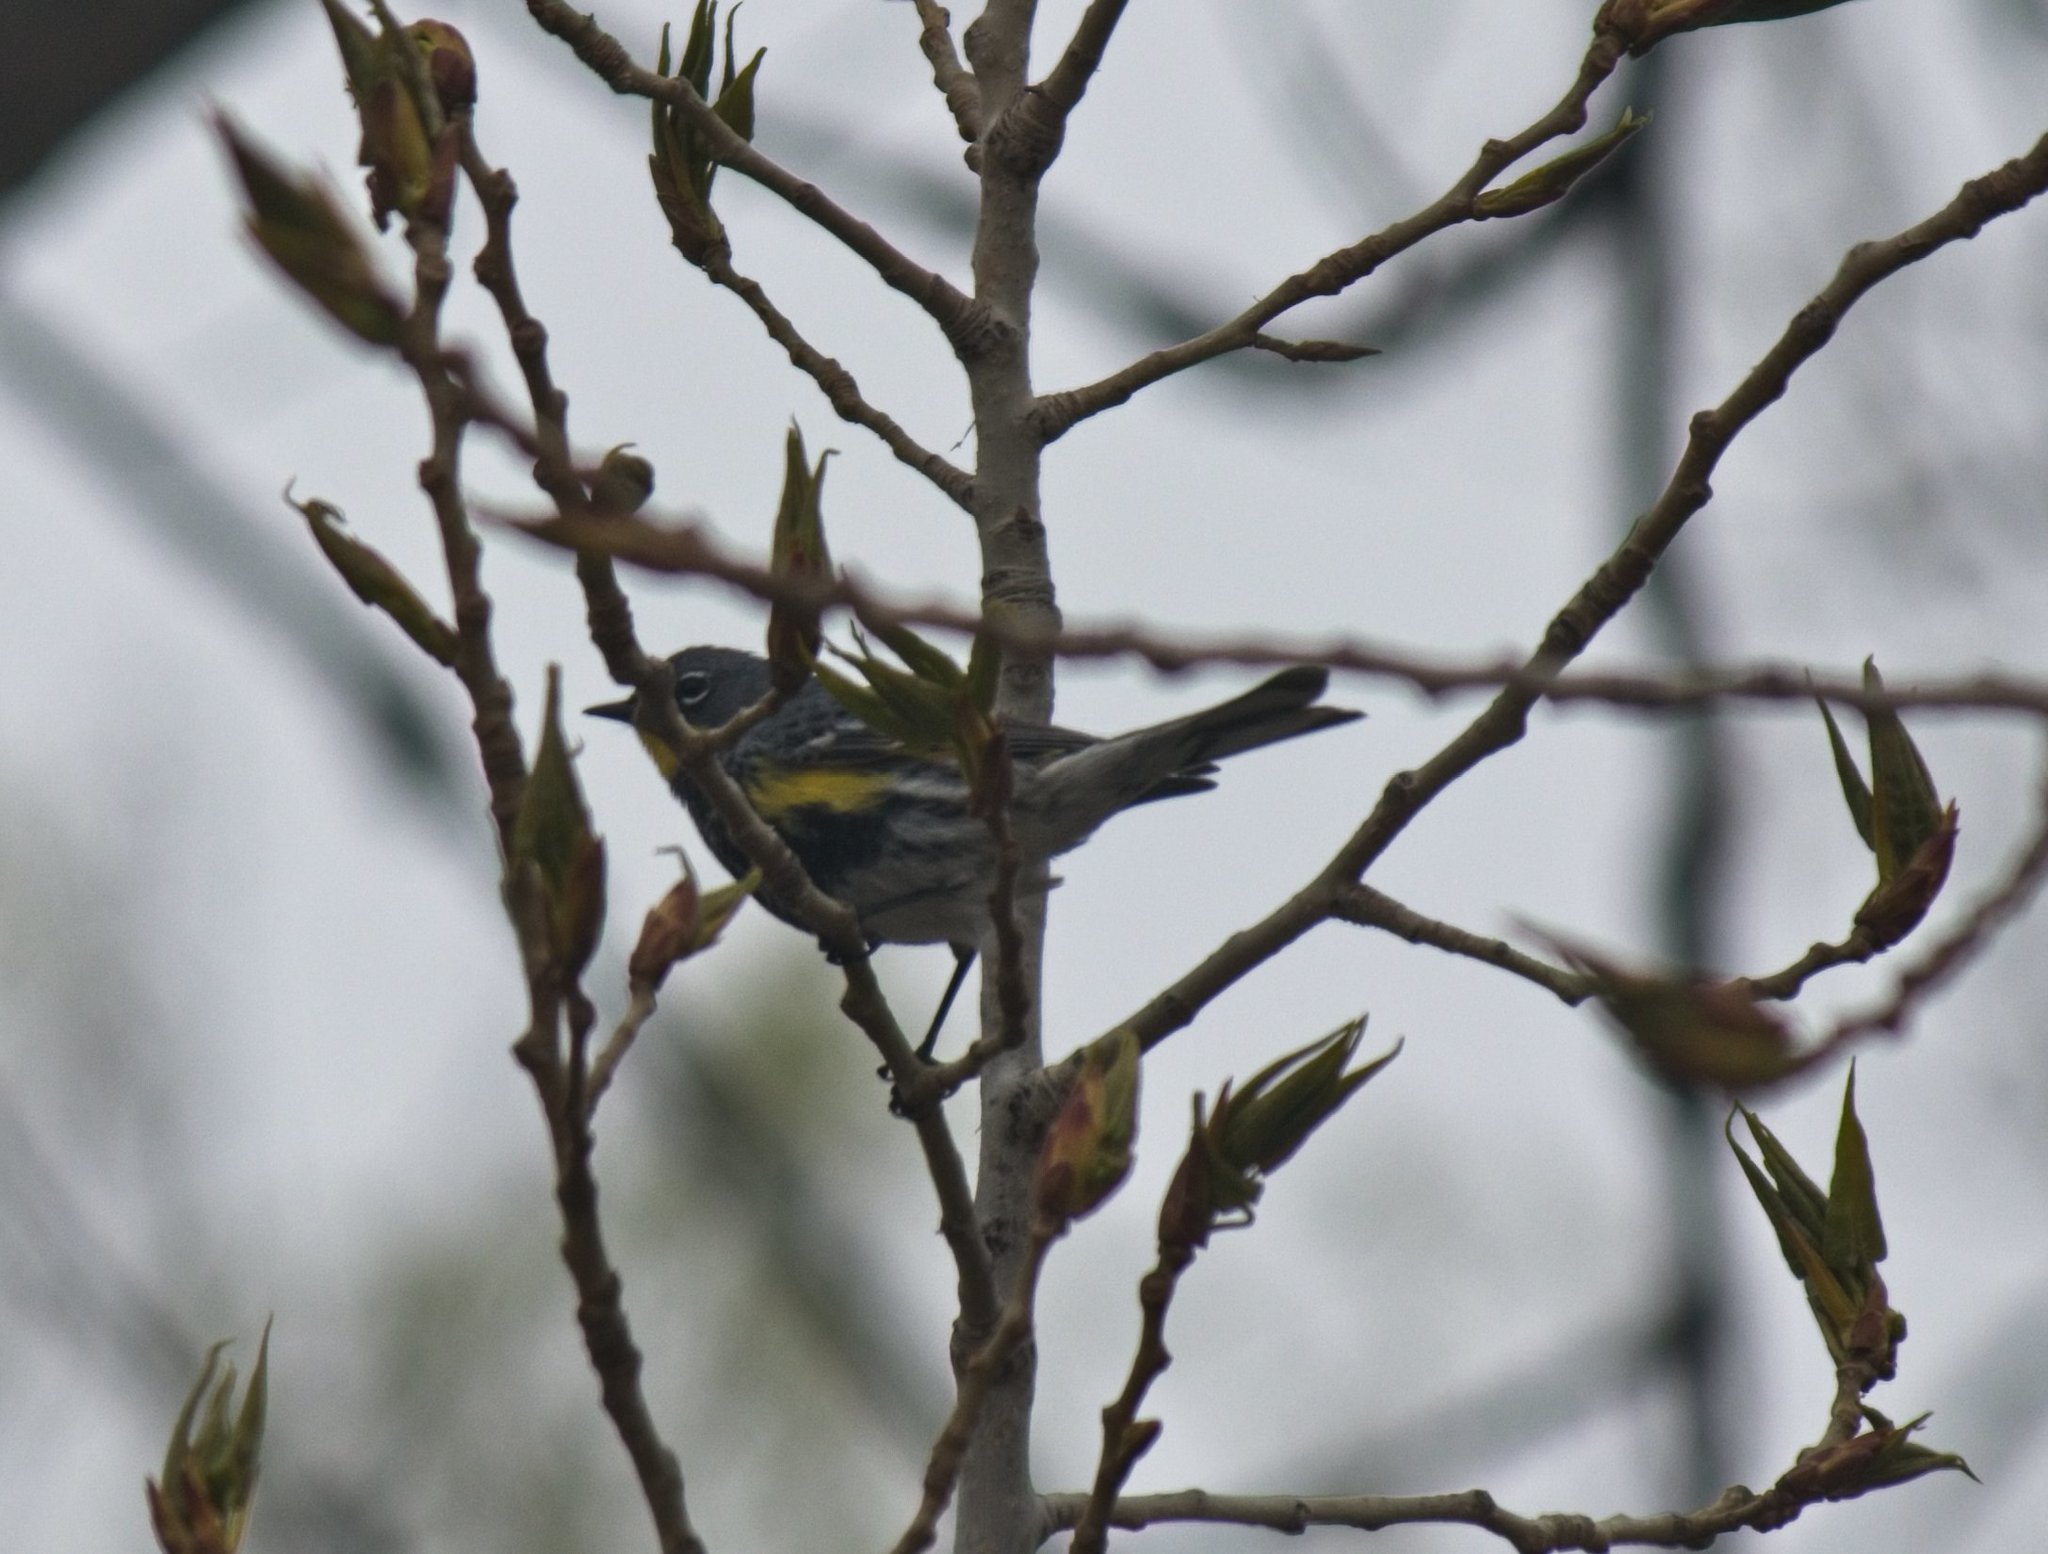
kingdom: Animalia
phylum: Chordata
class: Aves
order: Passeriformes
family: Parulidae
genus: Setophaga
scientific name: Setophaga auduboni
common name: Audubon's warbler
